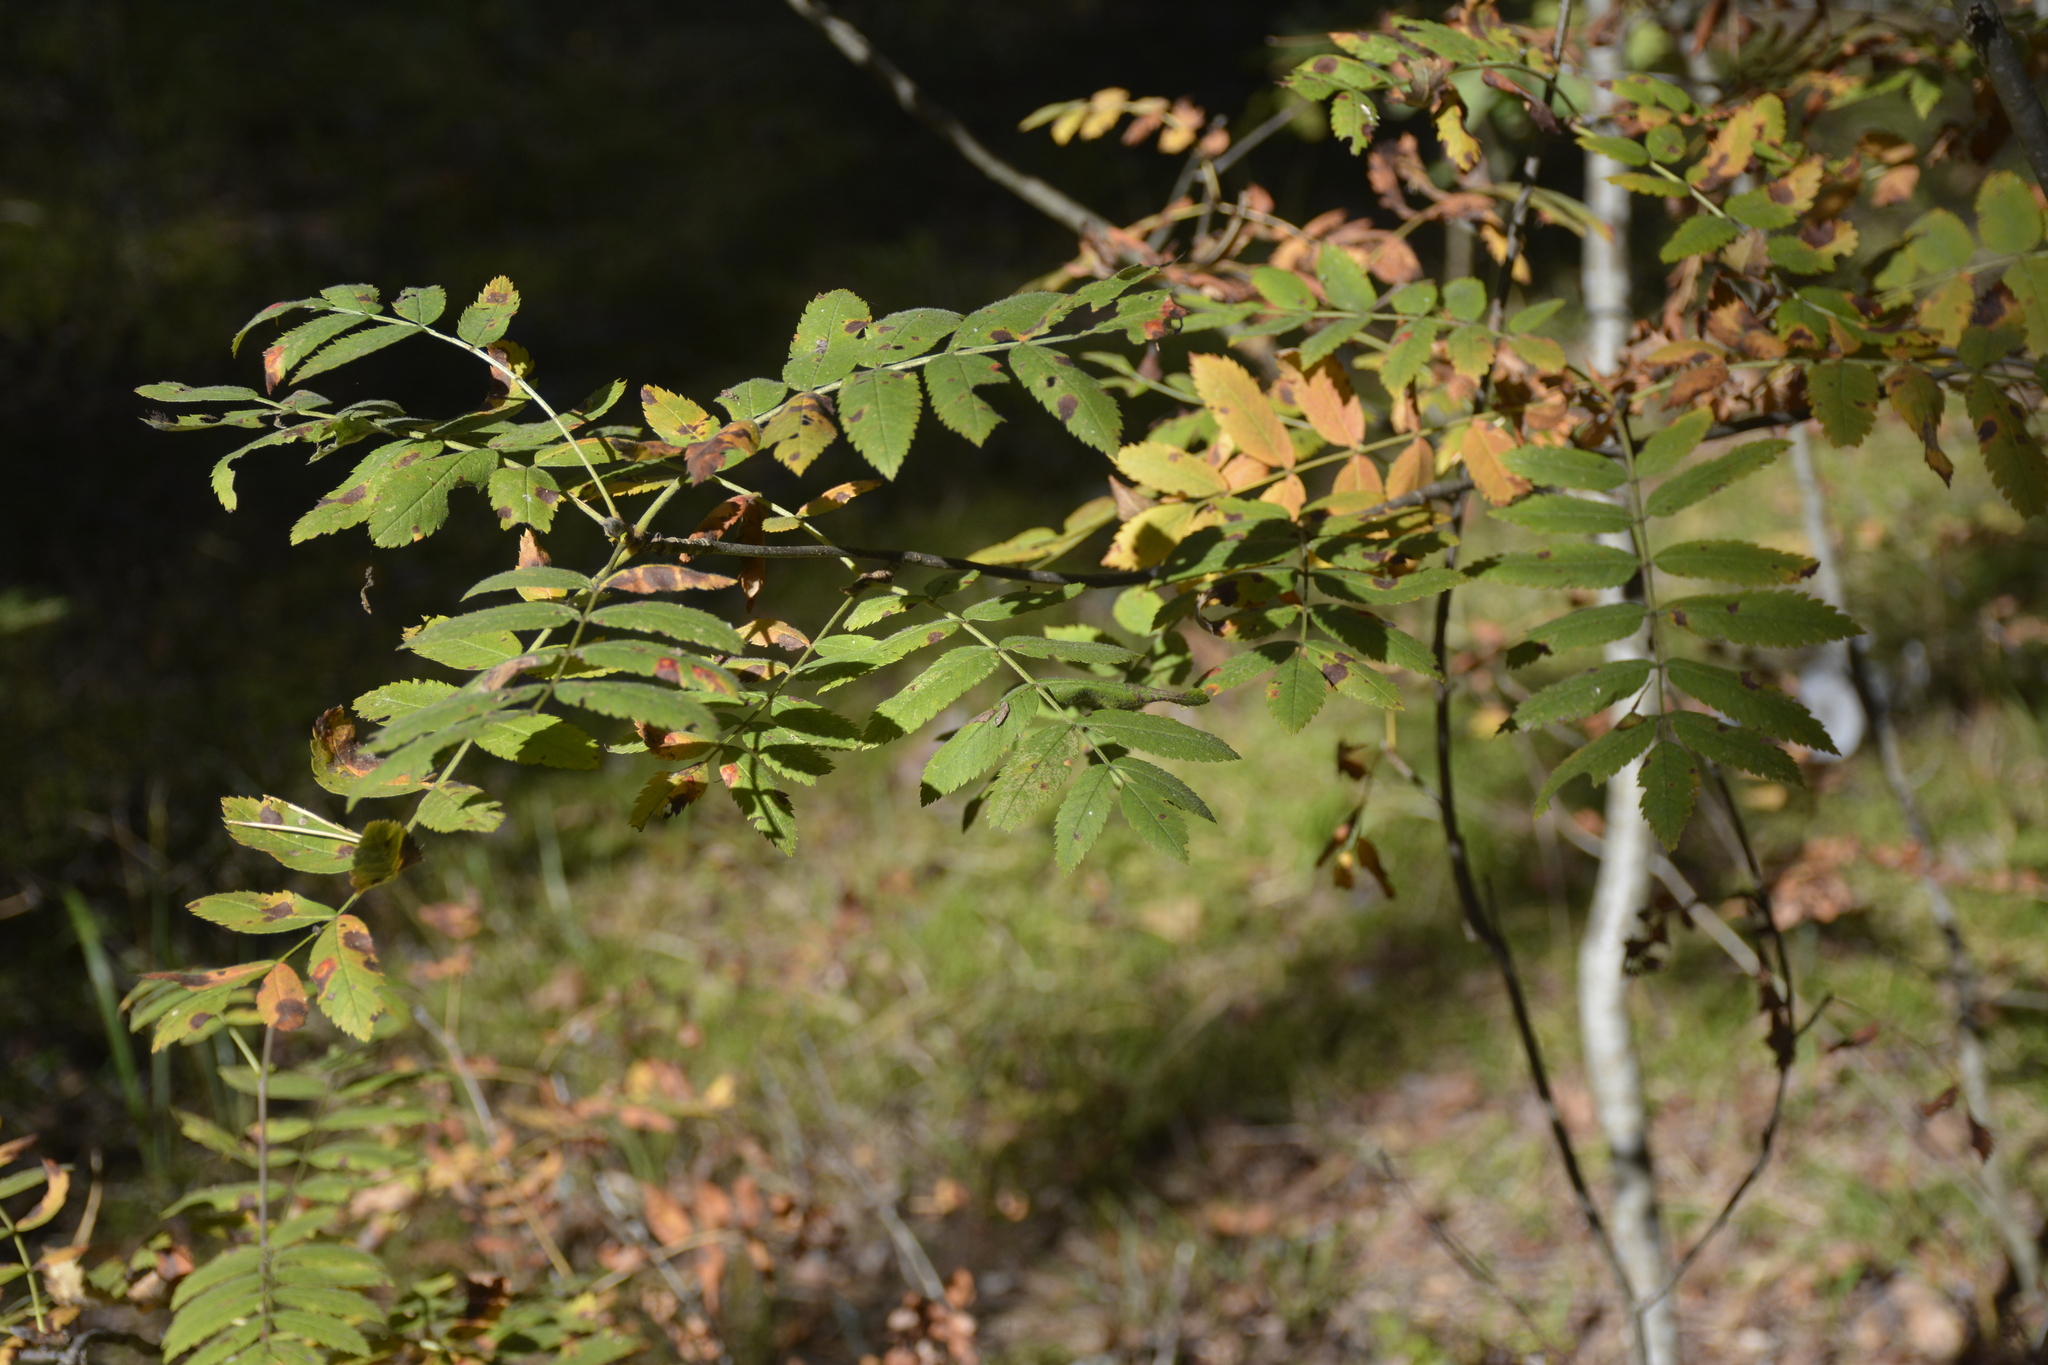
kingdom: Plantae
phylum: Tracheophyta
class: Magnoliopsida
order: Rosales
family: Rosaceae
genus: Sorbus
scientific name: Sorbus aucuparia
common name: Rowan
